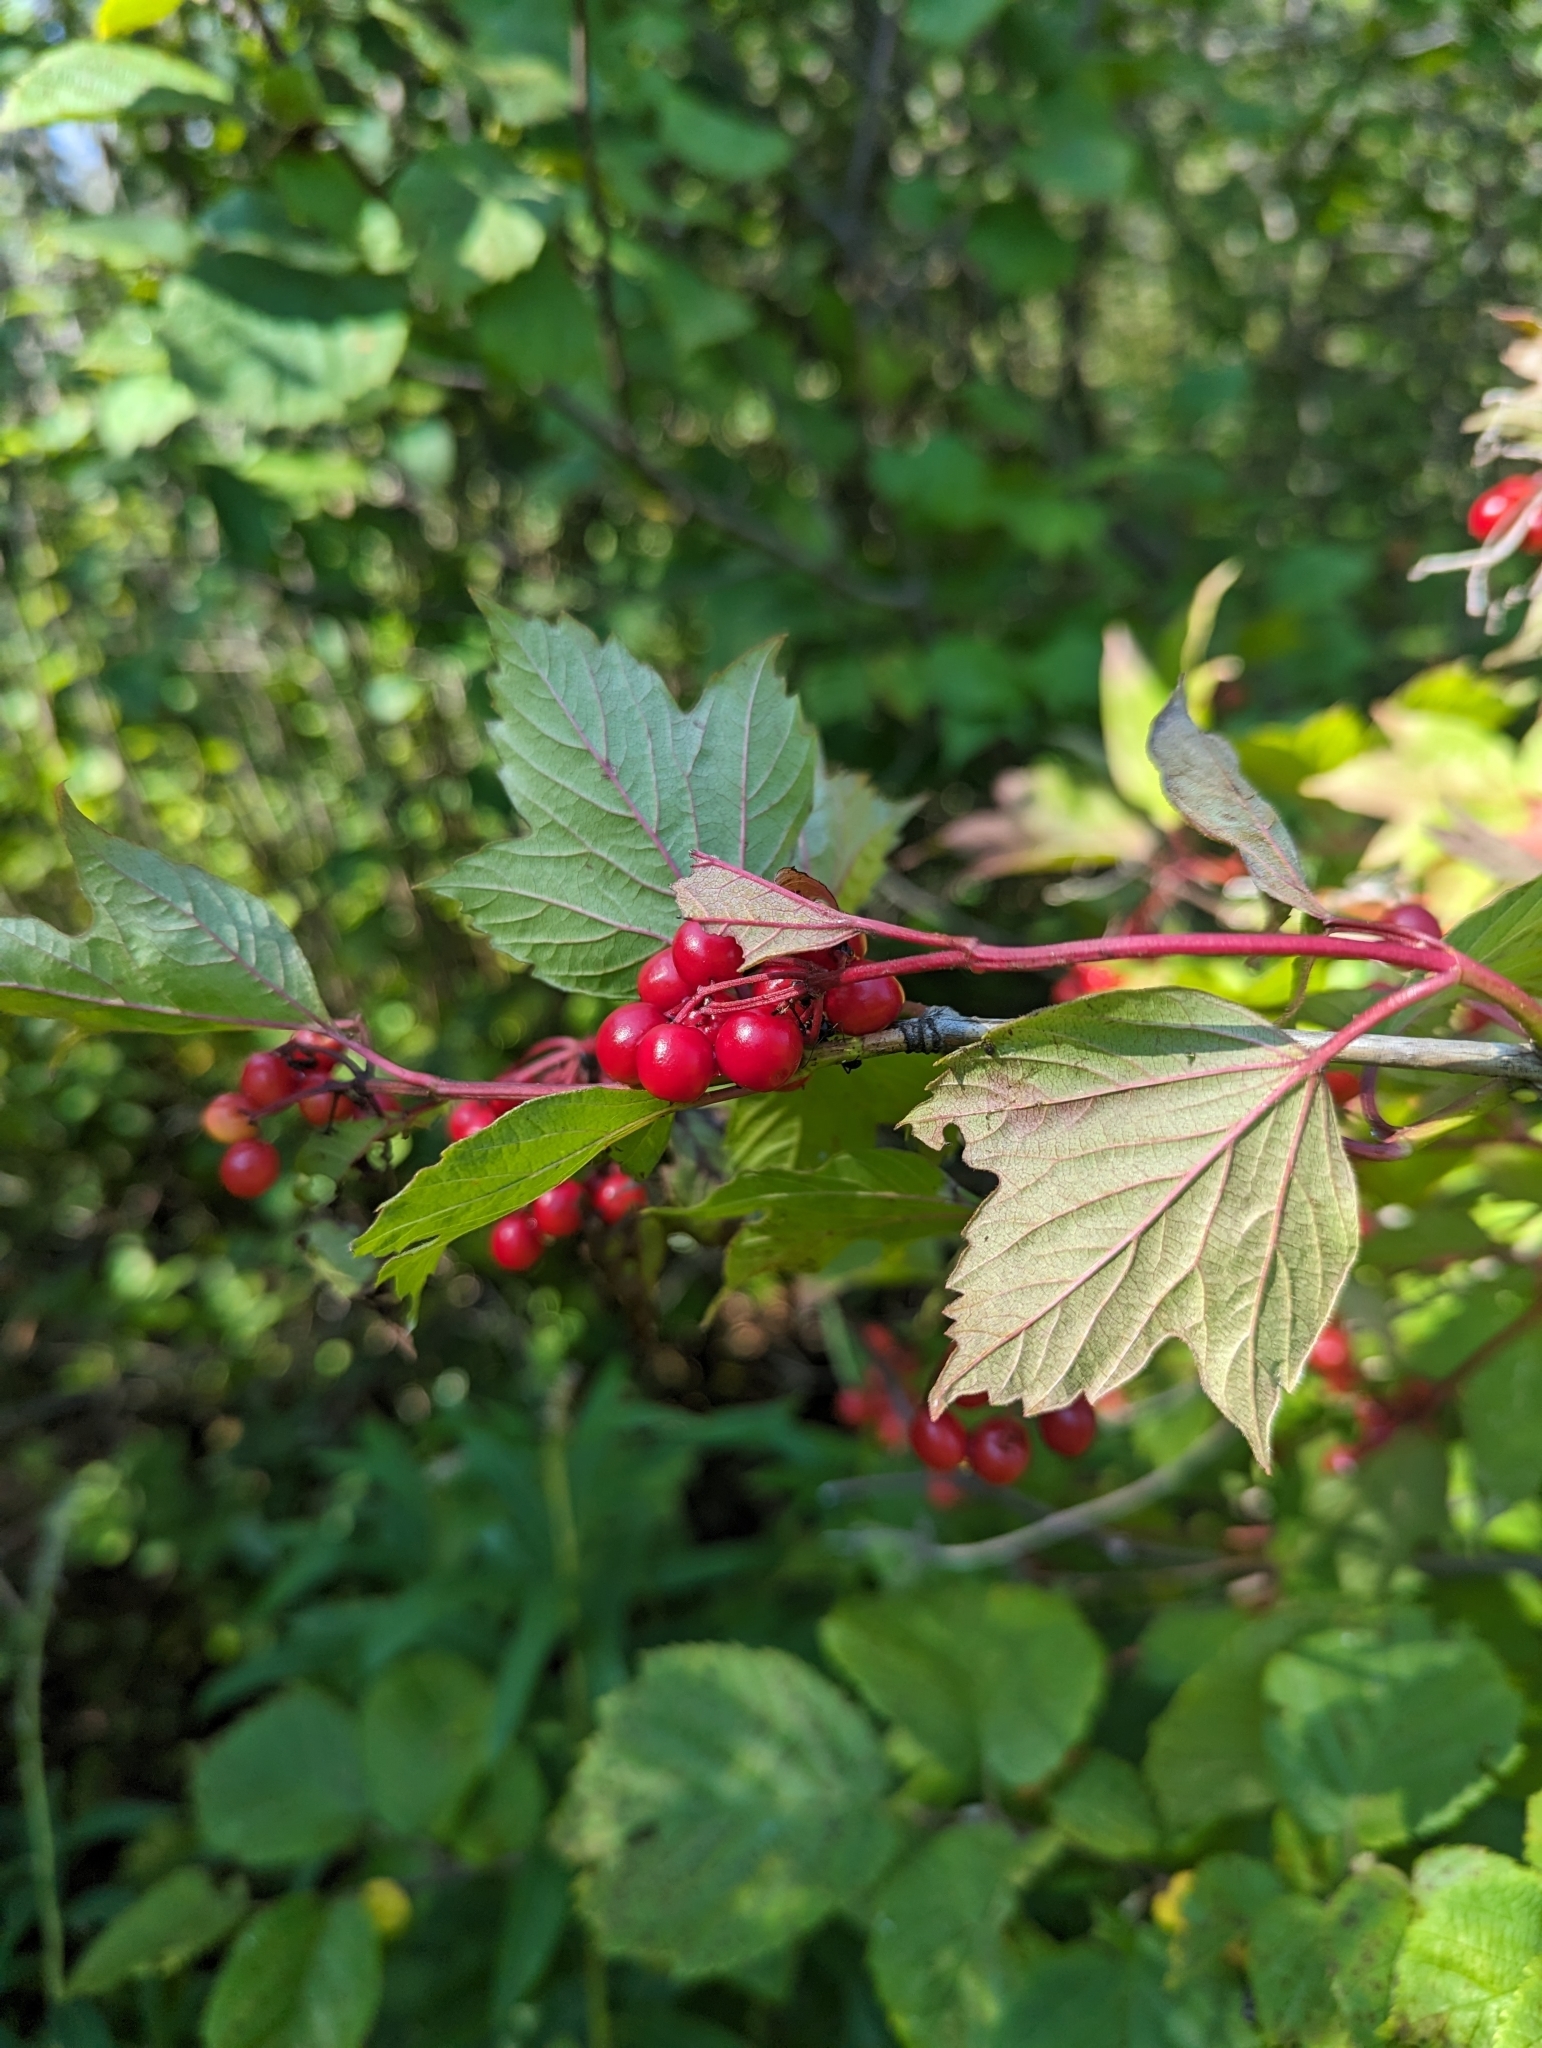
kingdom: Plantae
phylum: Tracheophyta
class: Magnoliopsida
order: Dipsacales
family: Viburnaceae
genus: Viburnum
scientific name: Viburnum opulus
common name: Guelder-rose
